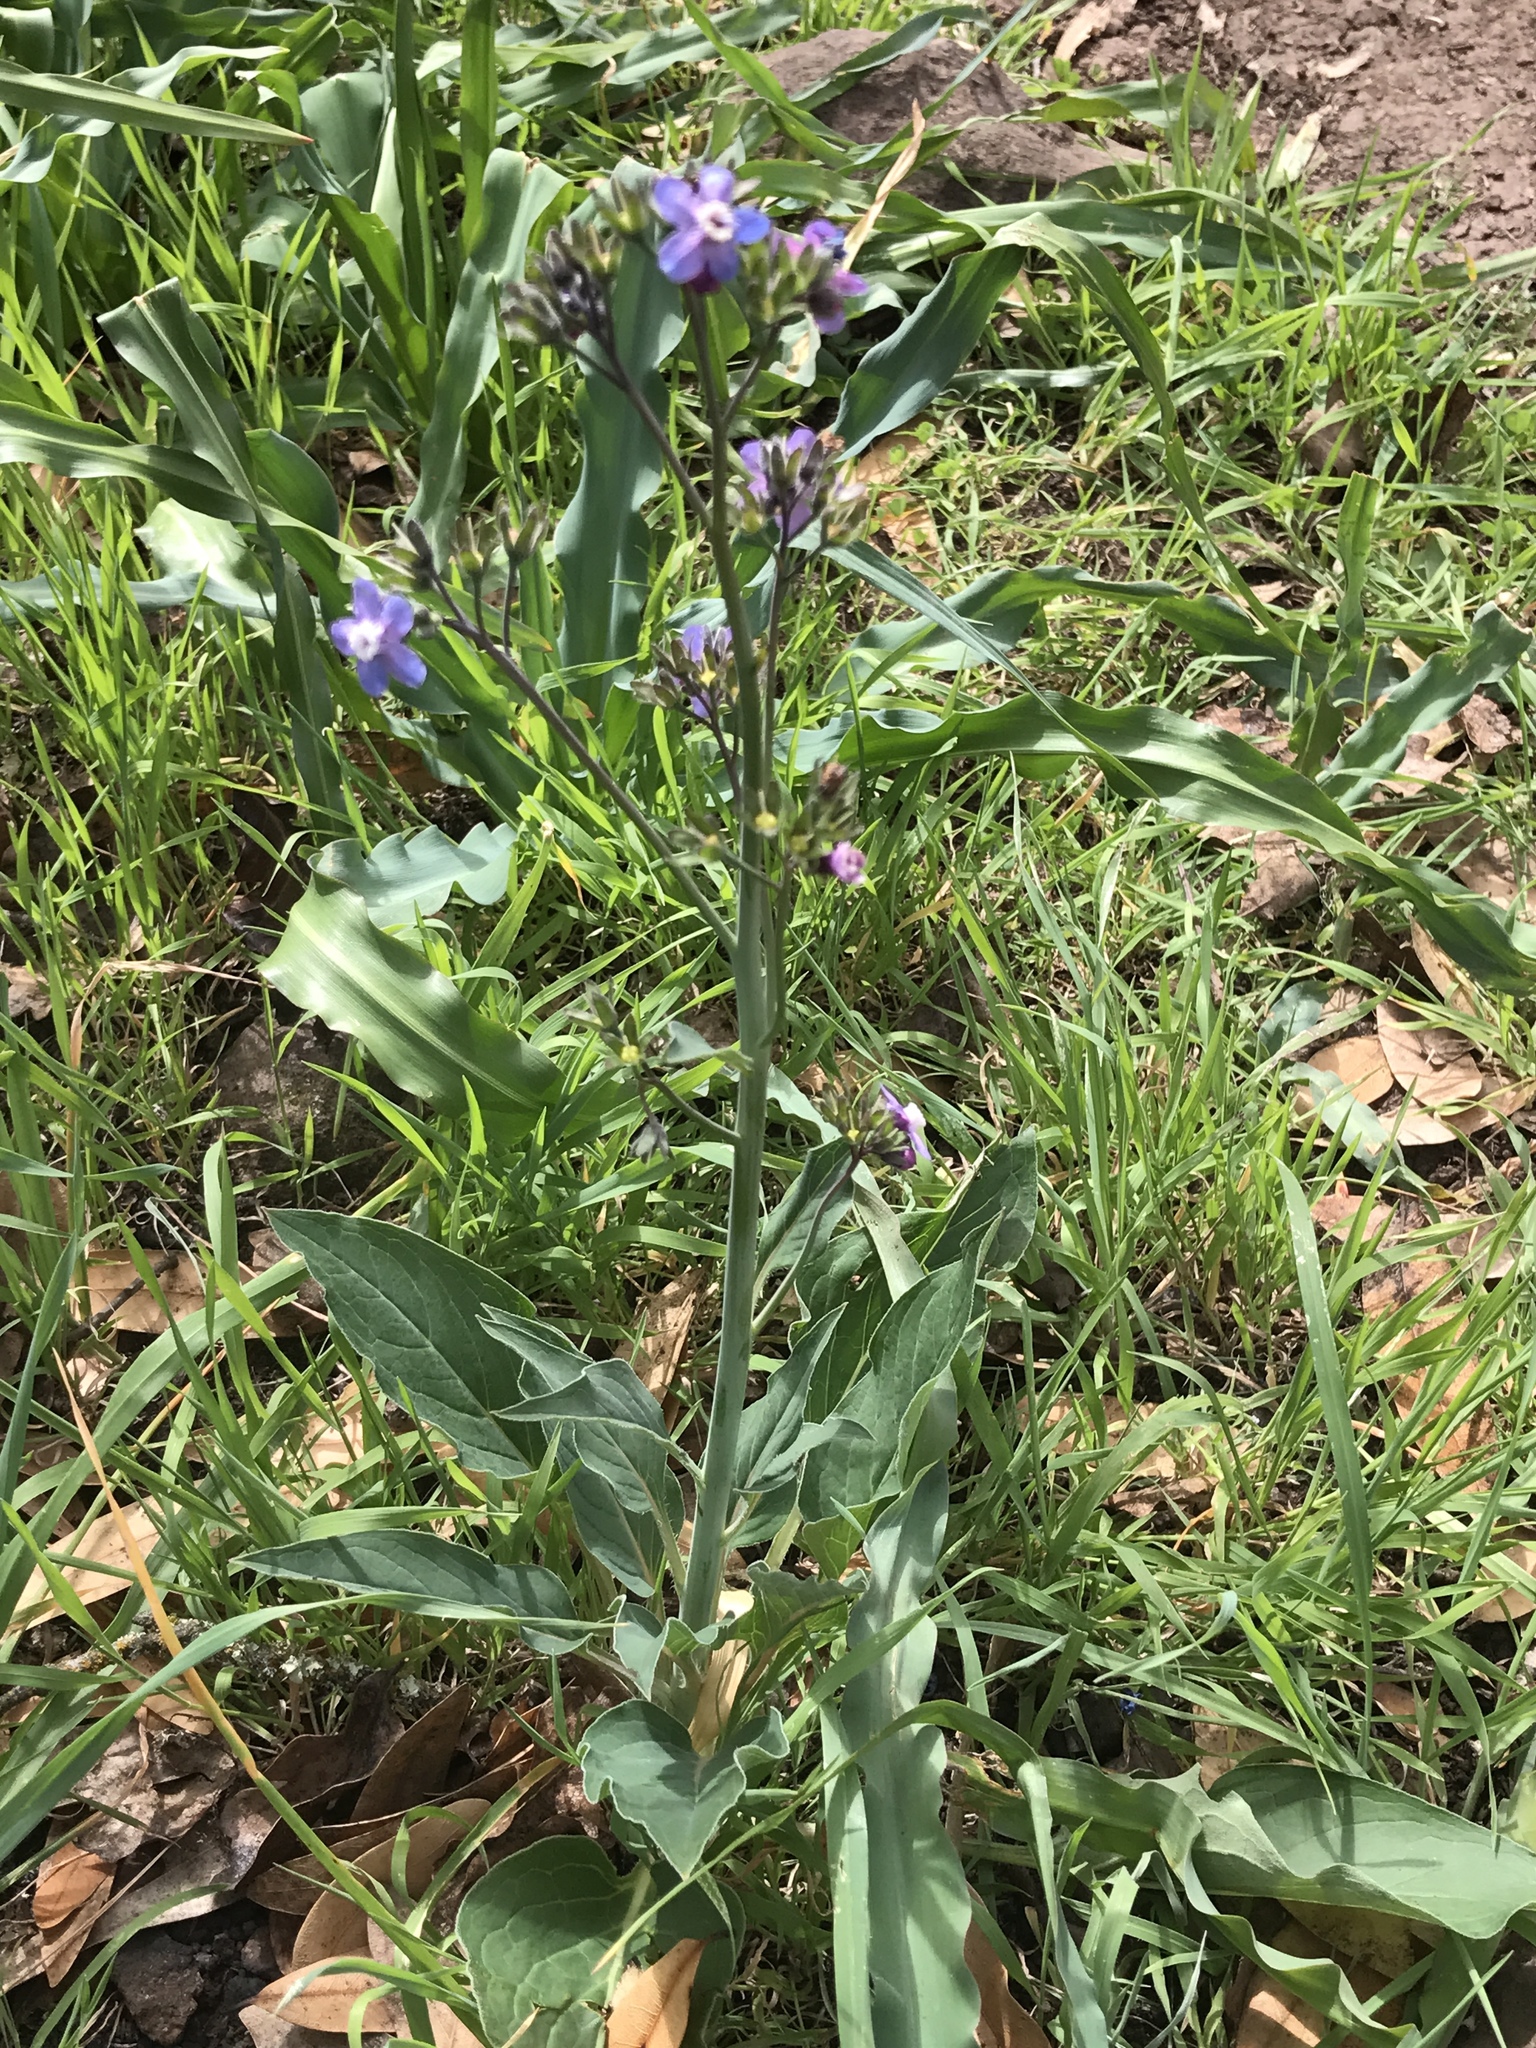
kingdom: Plantae
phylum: Tracheophyta
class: Magnoliopsida
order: Boraginales
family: Boraginaceae
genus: Adelinia
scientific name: Adelinia grande
